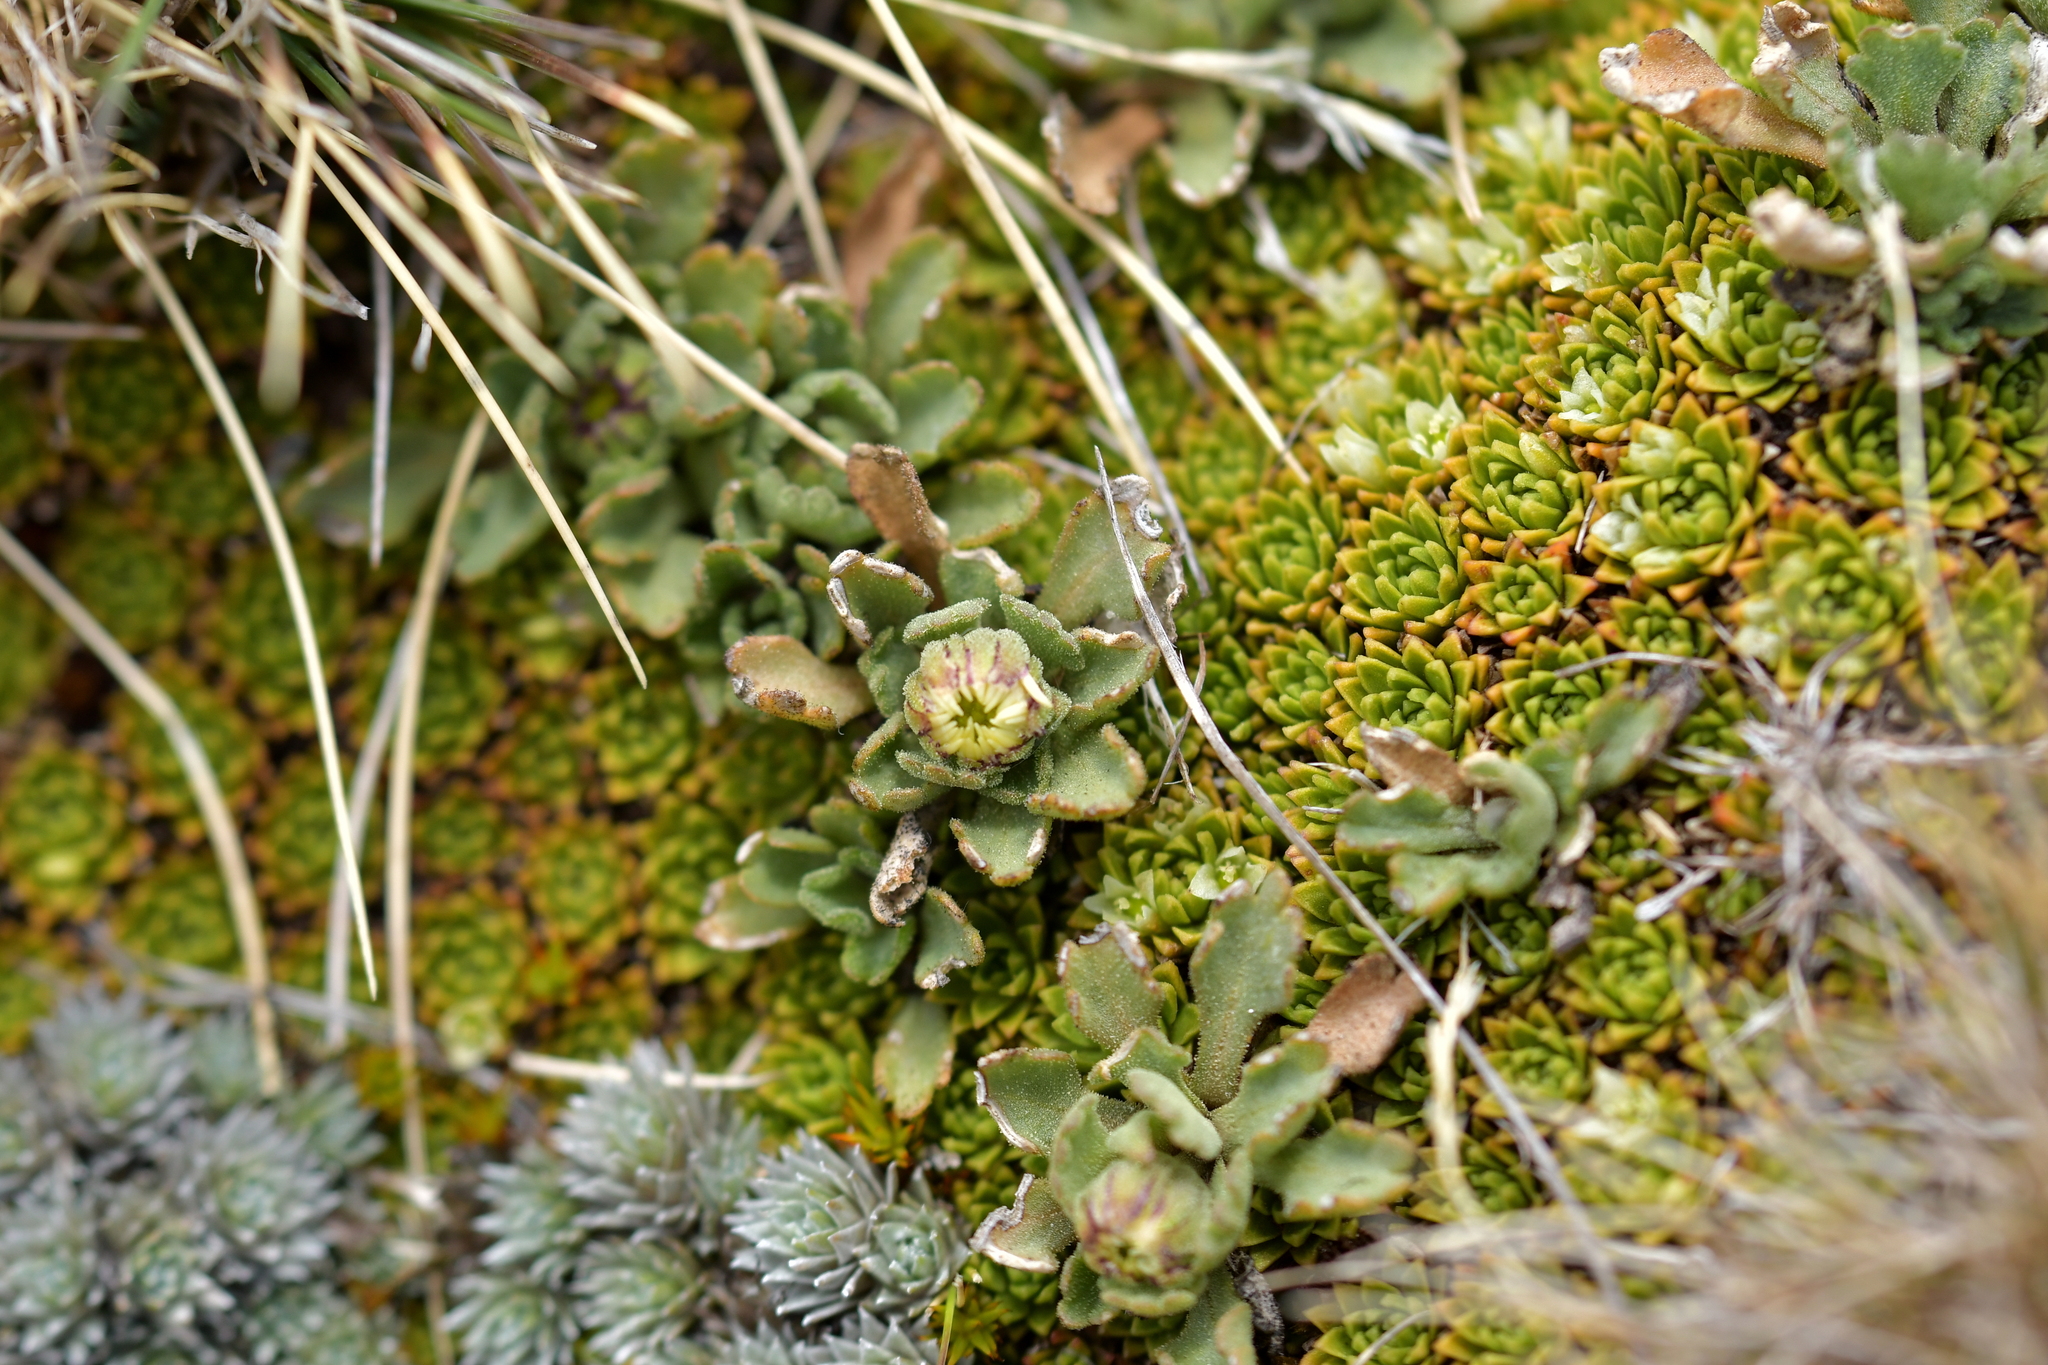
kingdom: Plantae
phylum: Tracheophyta
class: Magnoliopsida
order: Asterales
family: Asteraceae
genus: Brachyscome
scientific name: Brachyscome montana
